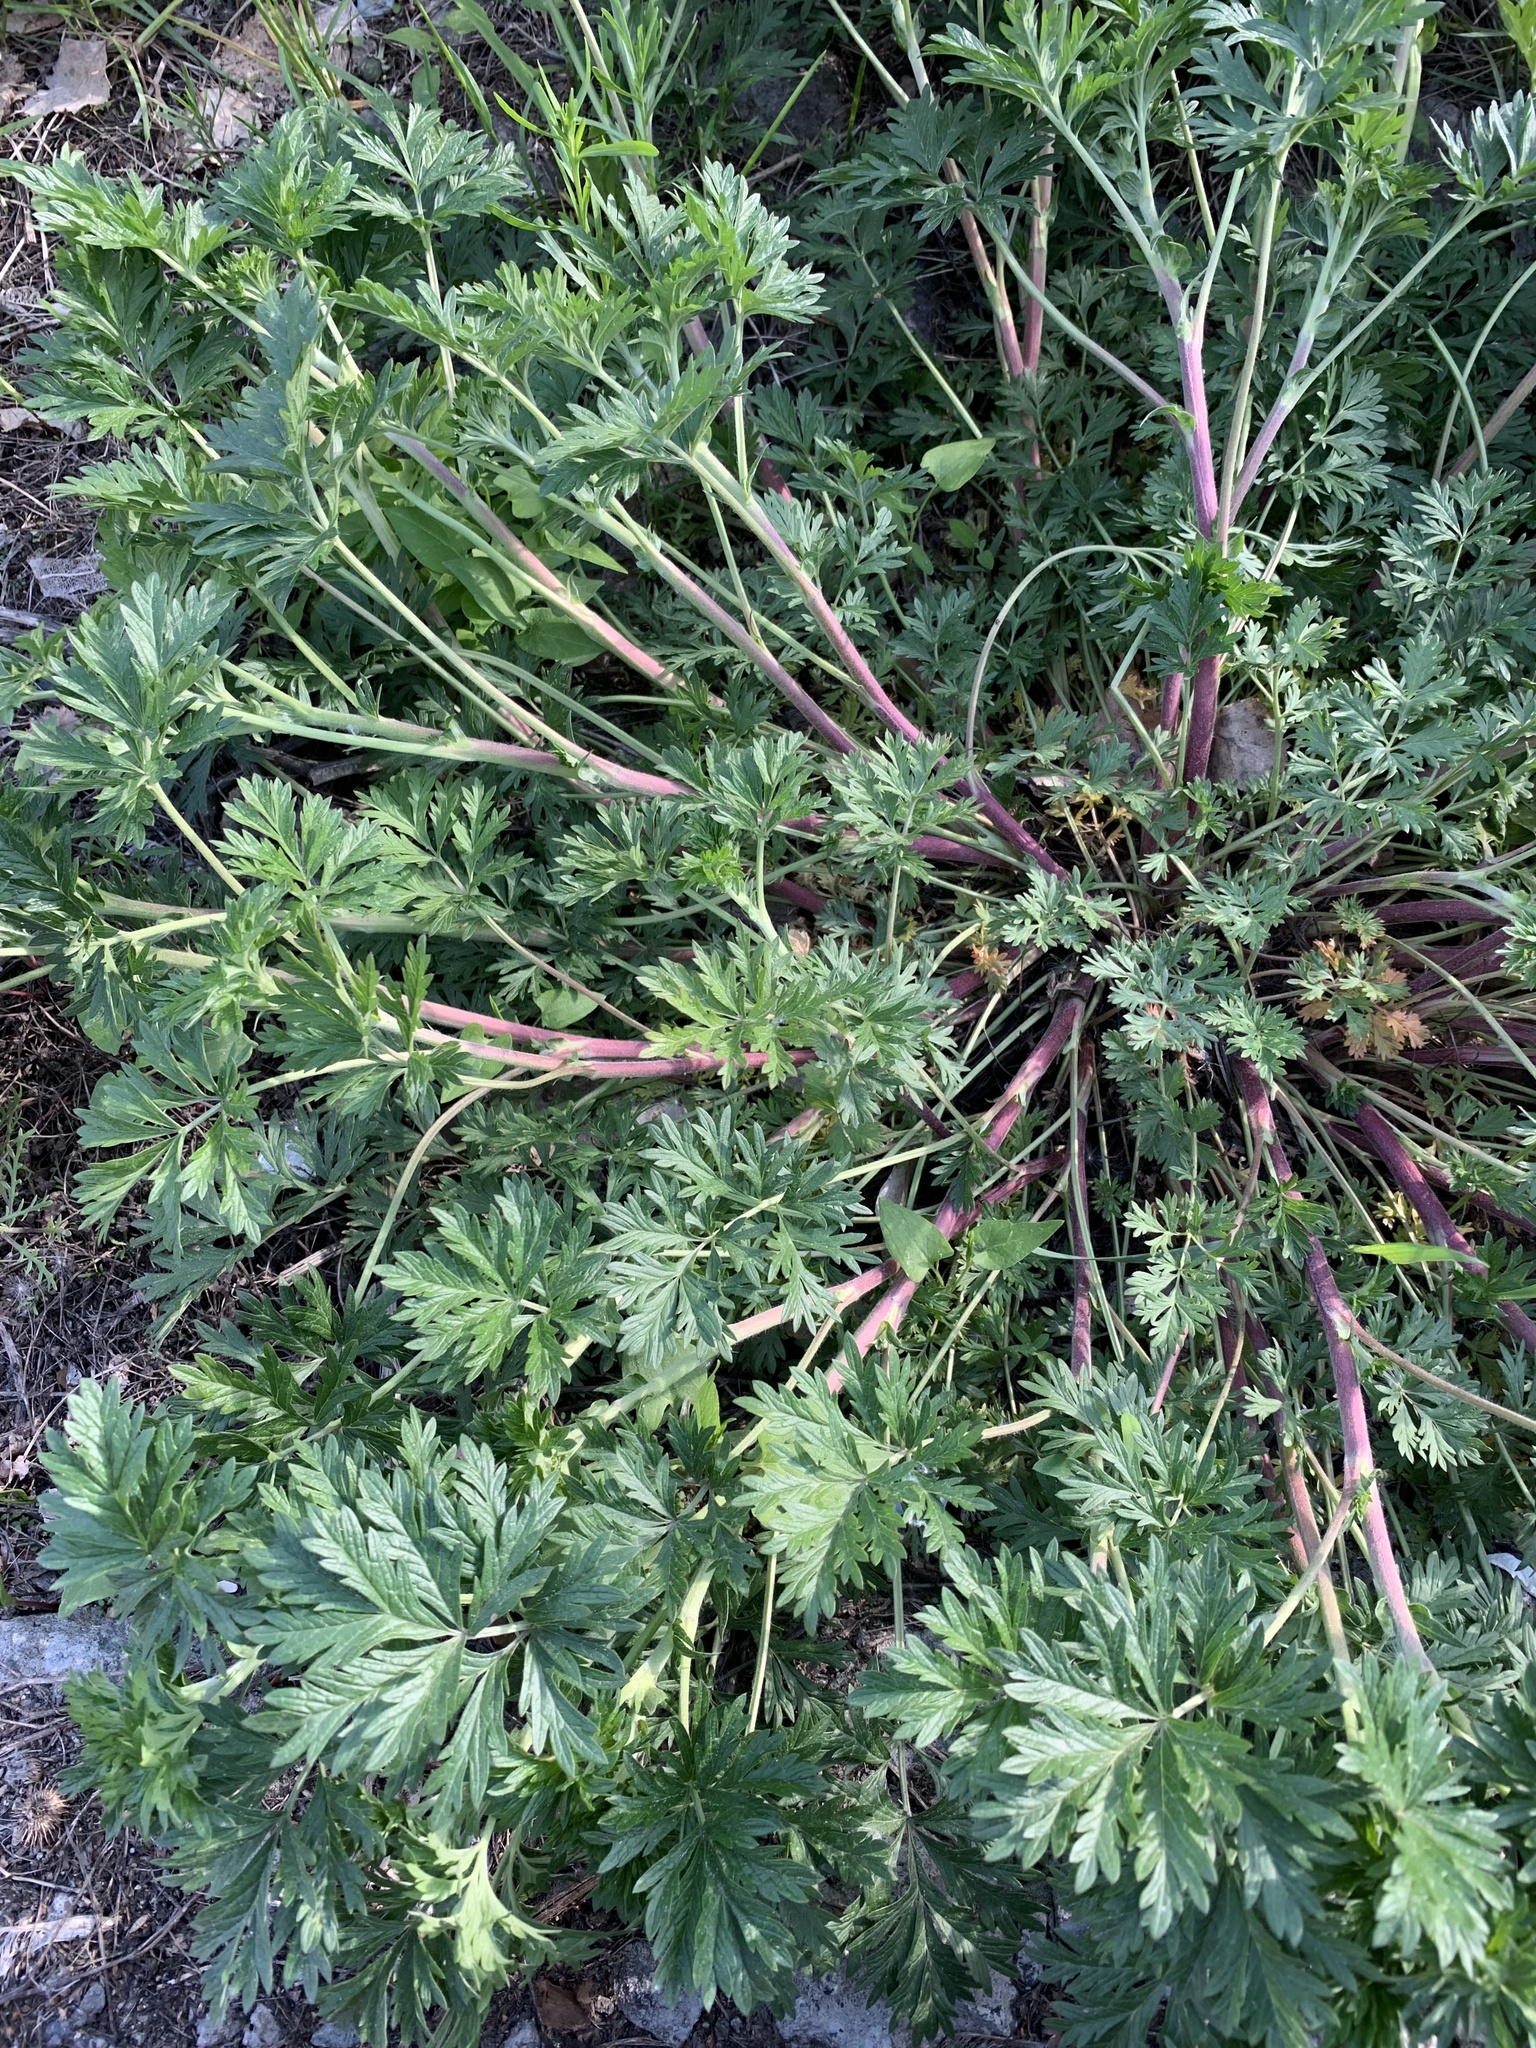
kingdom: Plantae
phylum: Tracheophyta
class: Magnoliopsida
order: Rosales
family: Rosaceae
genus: Potentilla
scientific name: Potentilla tobolensis
